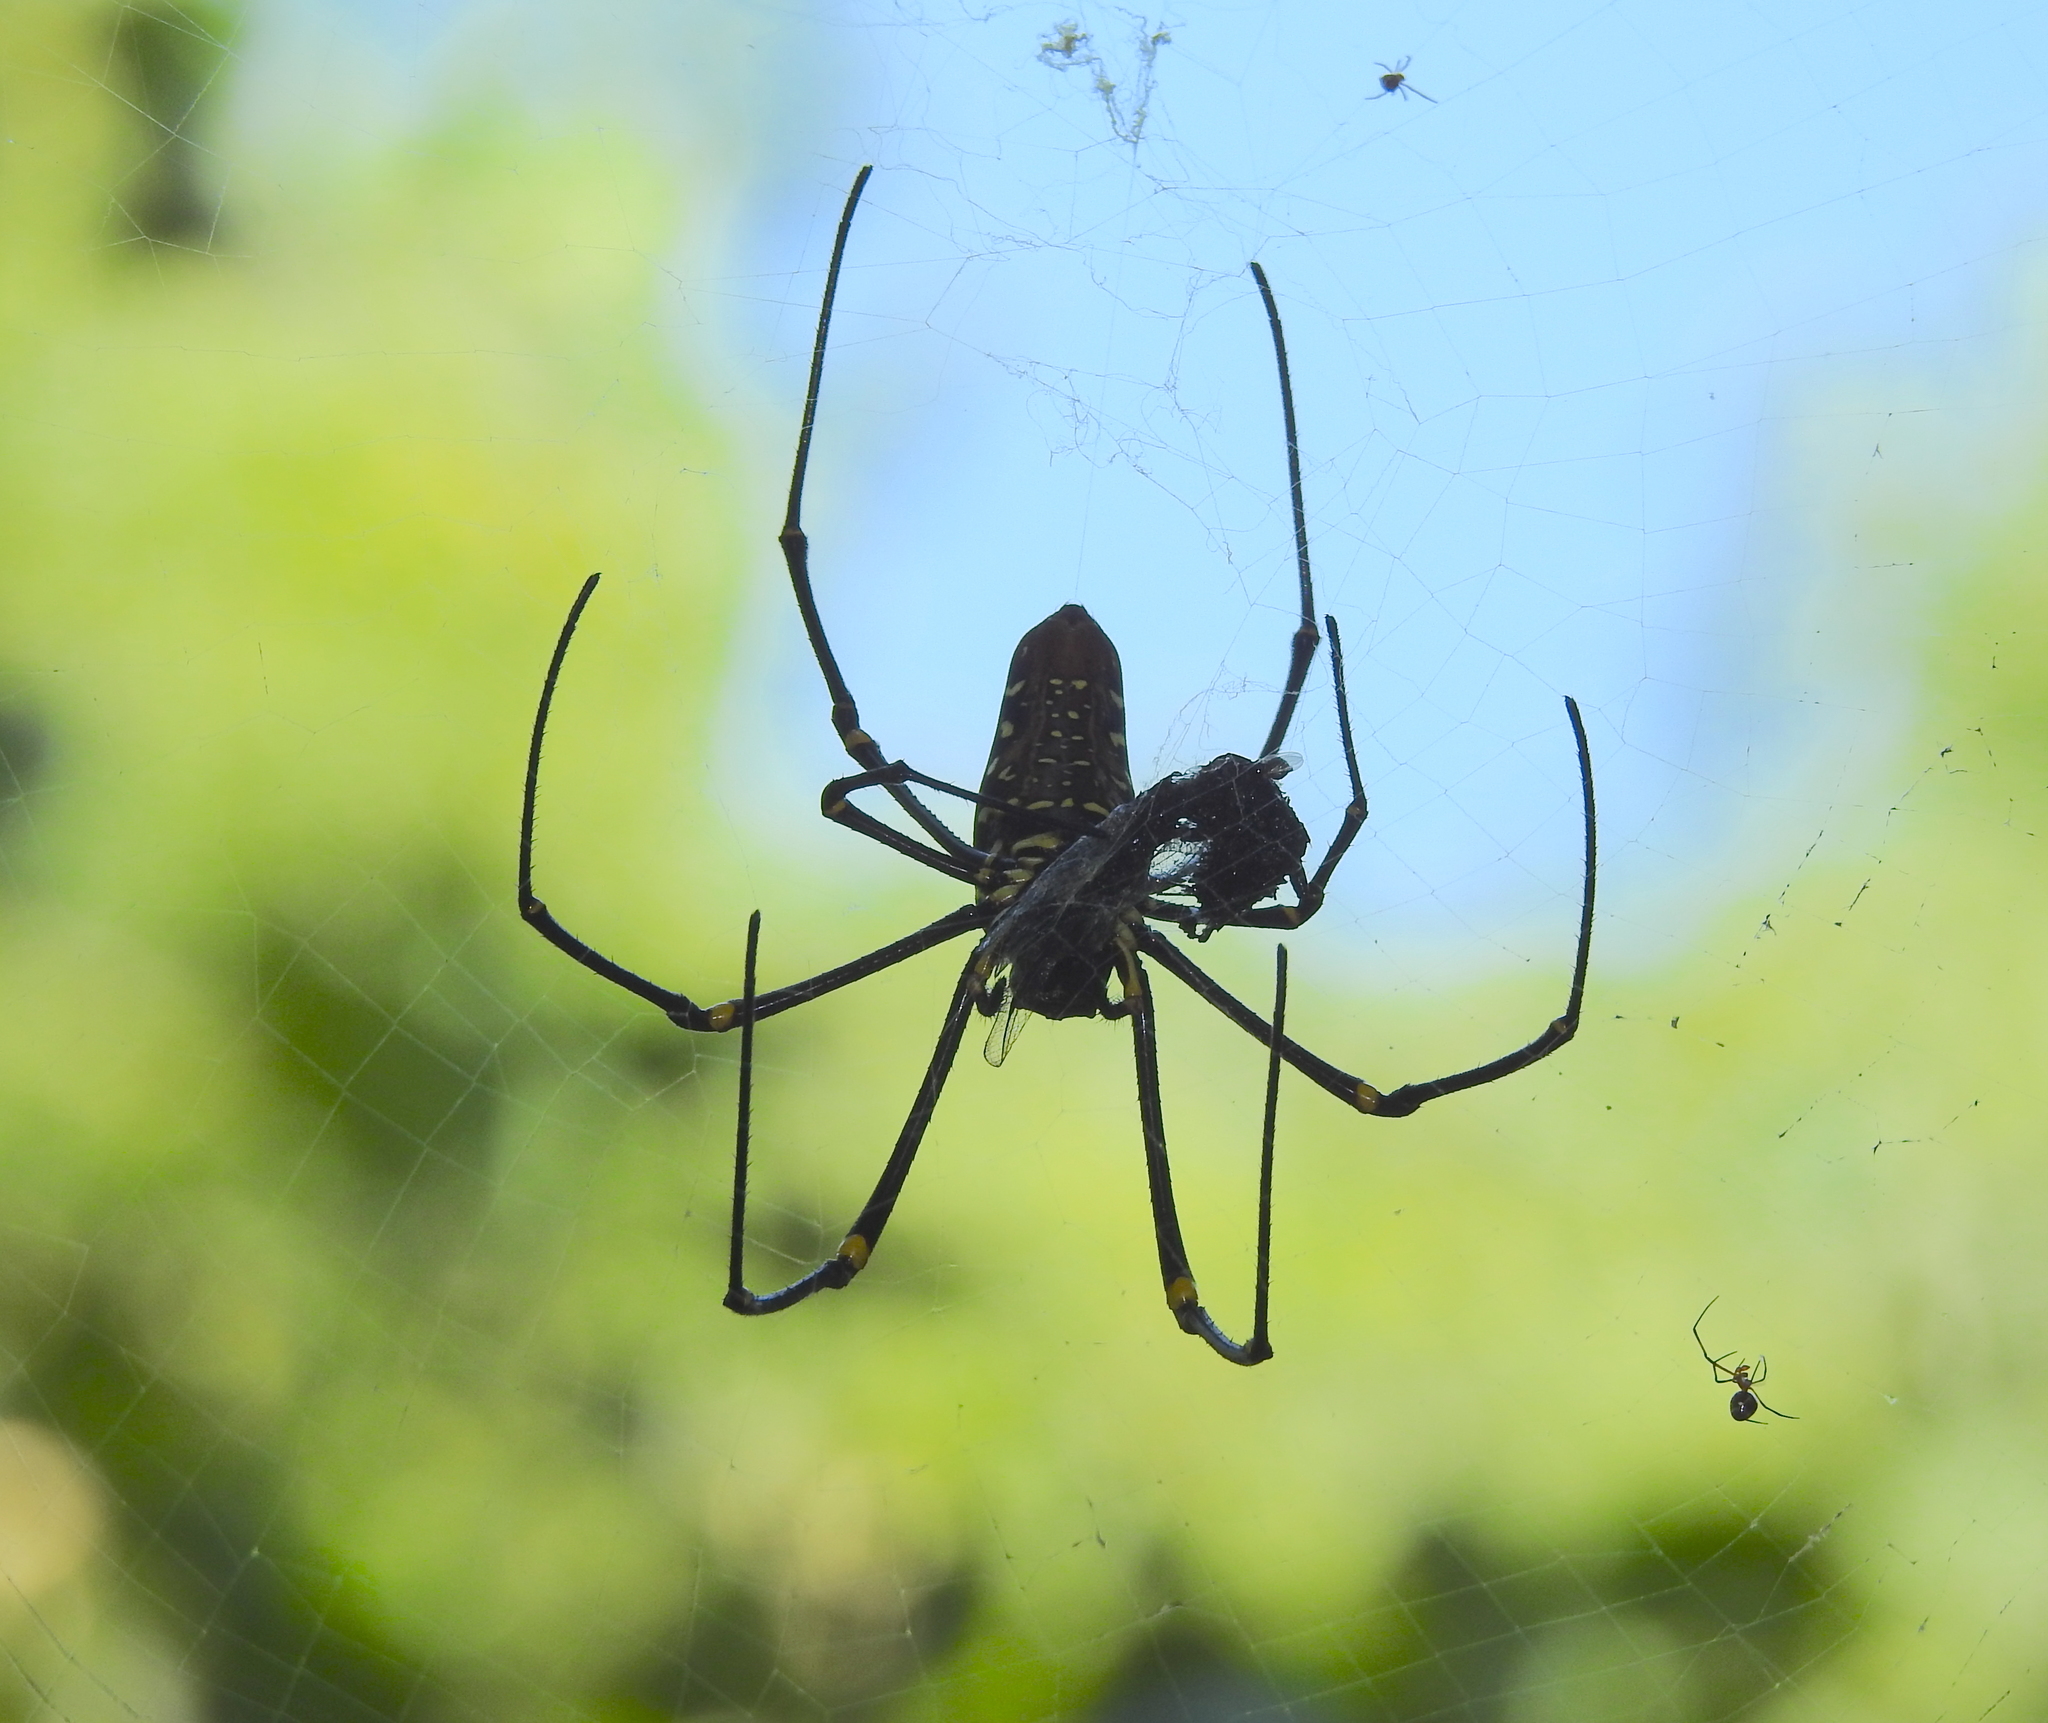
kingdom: Animalia
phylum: Arthropoda
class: Arachnida
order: Araneae
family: Araneidae
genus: Nephila
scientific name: Nephila pilipes
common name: Giant golden orb weaver
